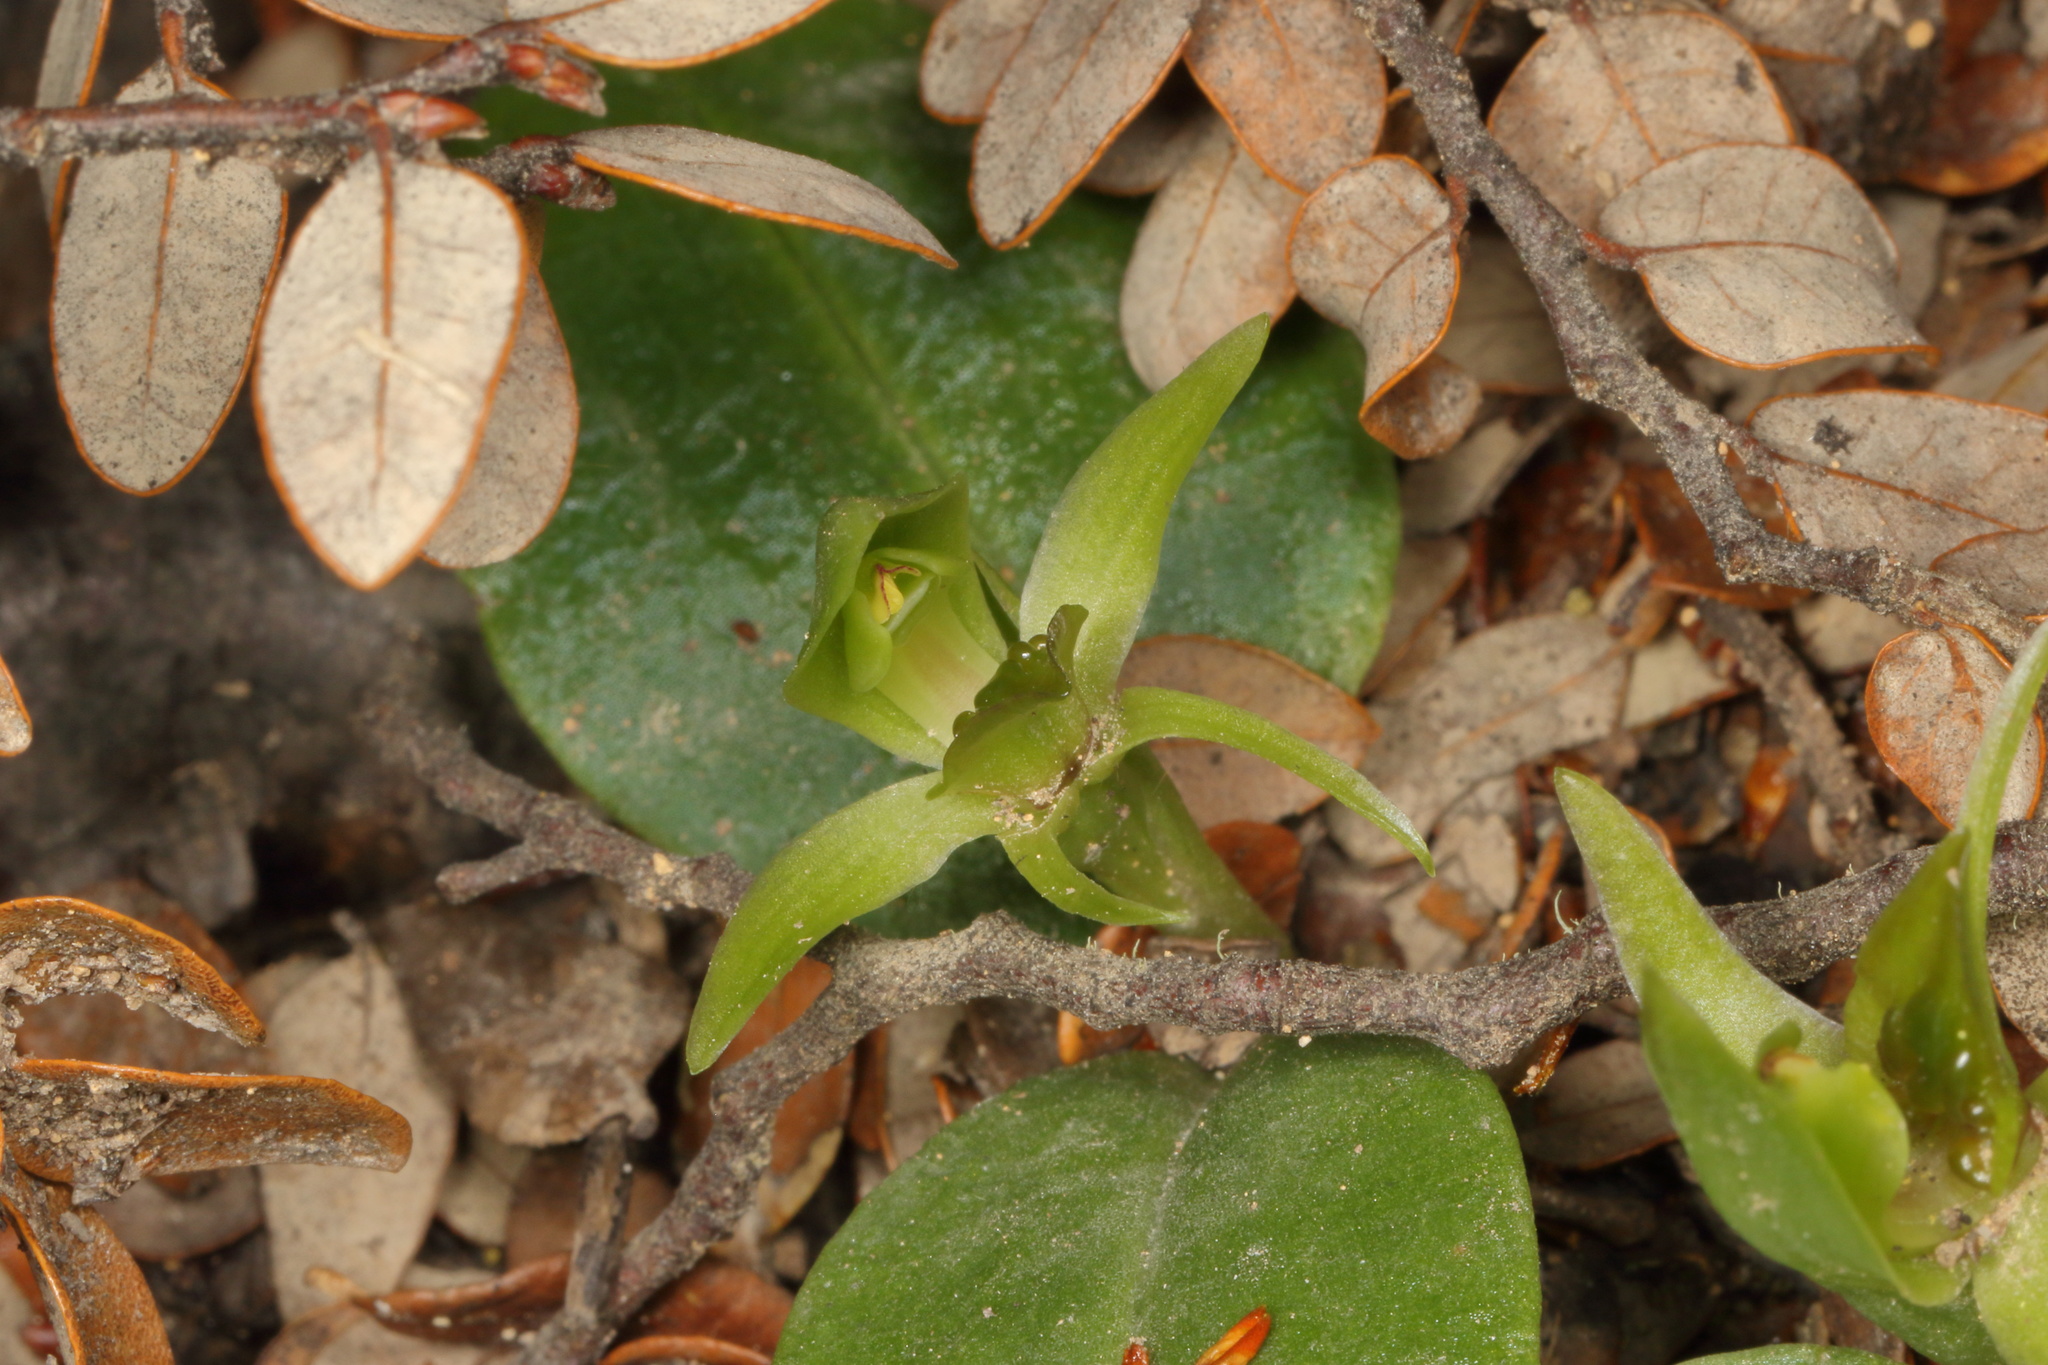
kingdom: Plantae
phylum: Tracheophyta
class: Liliopsida
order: Asparagales
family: Orchidaceae
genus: Chiloglottis
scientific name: Chiloglottis cornuta
